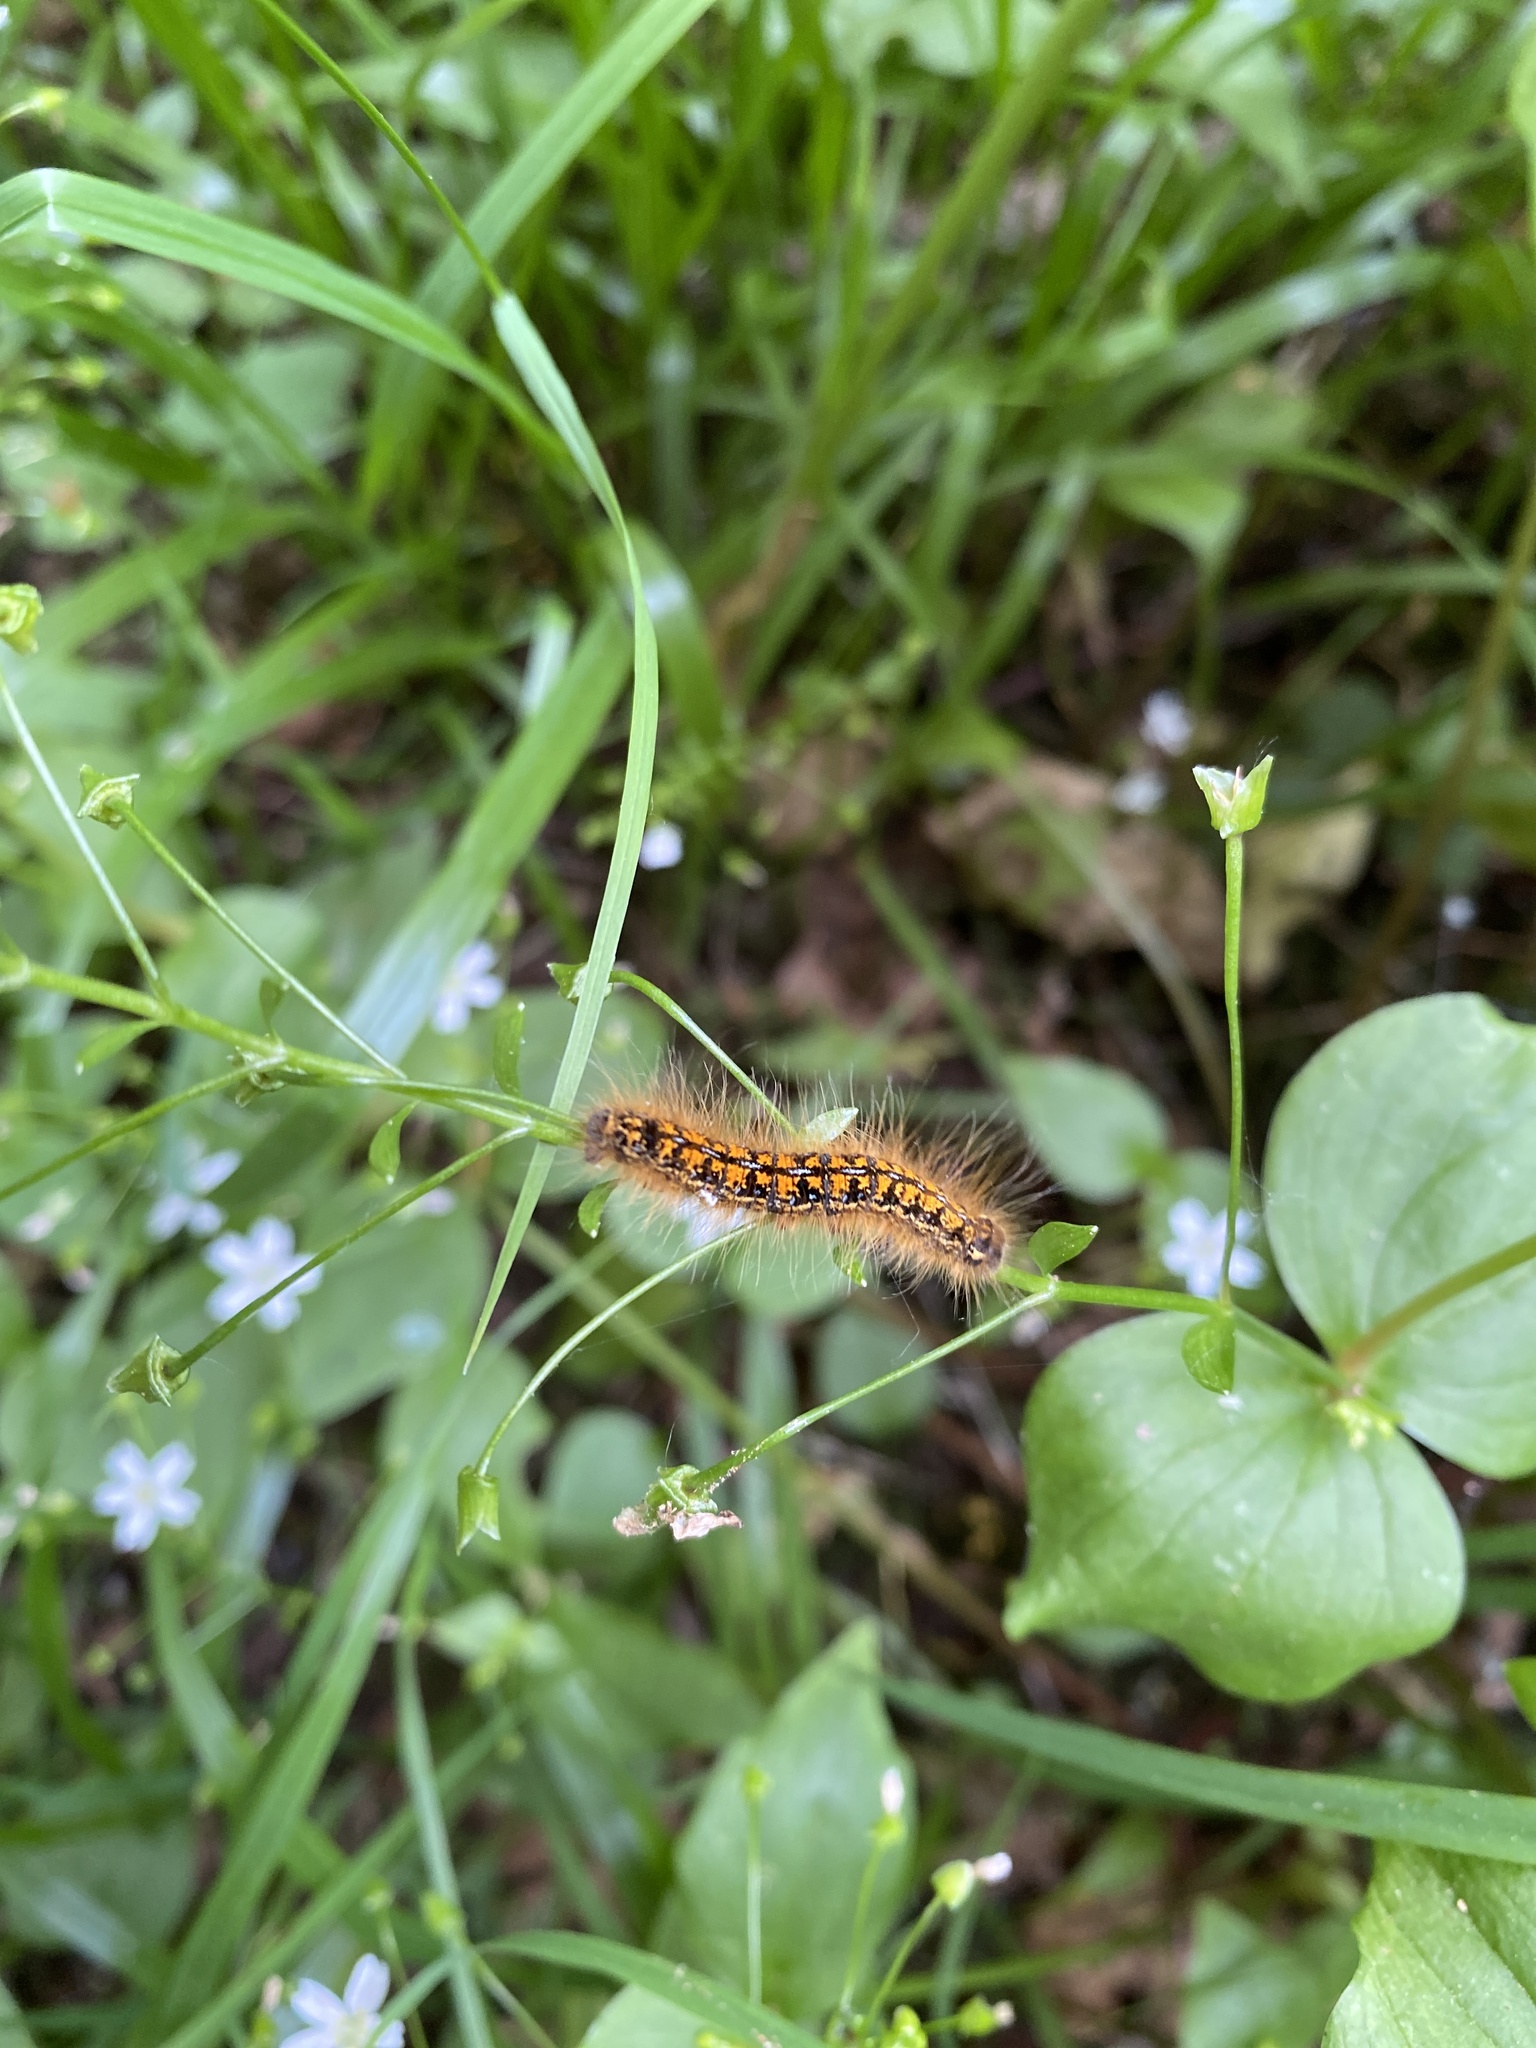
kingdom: Animalia
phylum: Arthropoda
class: Insecta
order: Lepidoptera
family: Lasiocampidae
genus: Malacosoma
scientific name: Malacosoma californica
